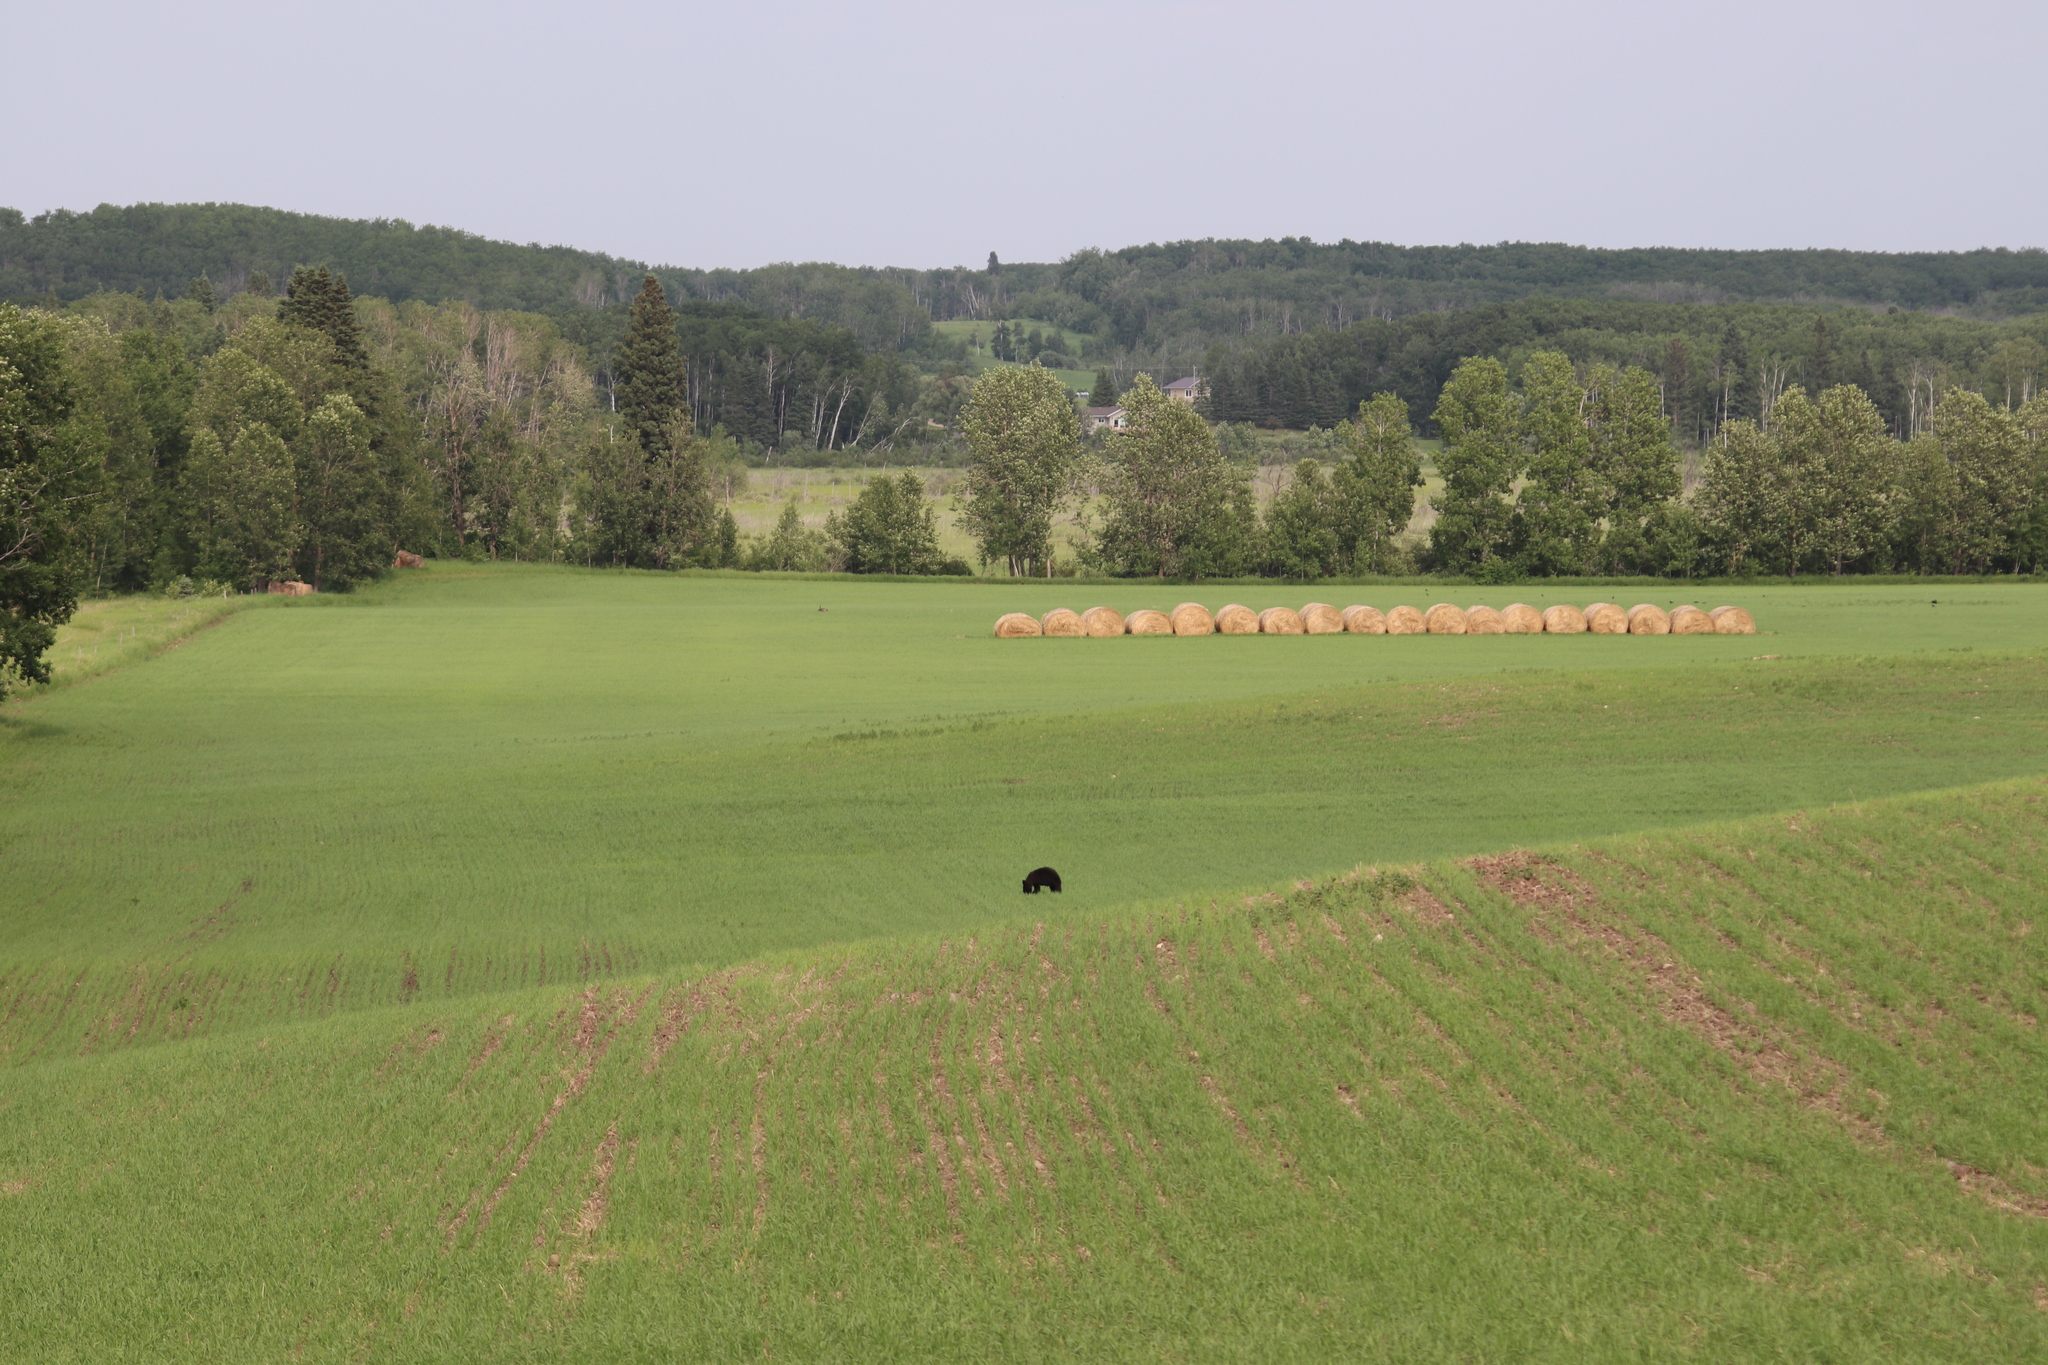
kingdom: Animalia
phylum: Chordata
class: Mammalia
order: Carnivora
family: Ursidae
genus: Ursus
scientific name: Ursus americanus
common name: American black bear
